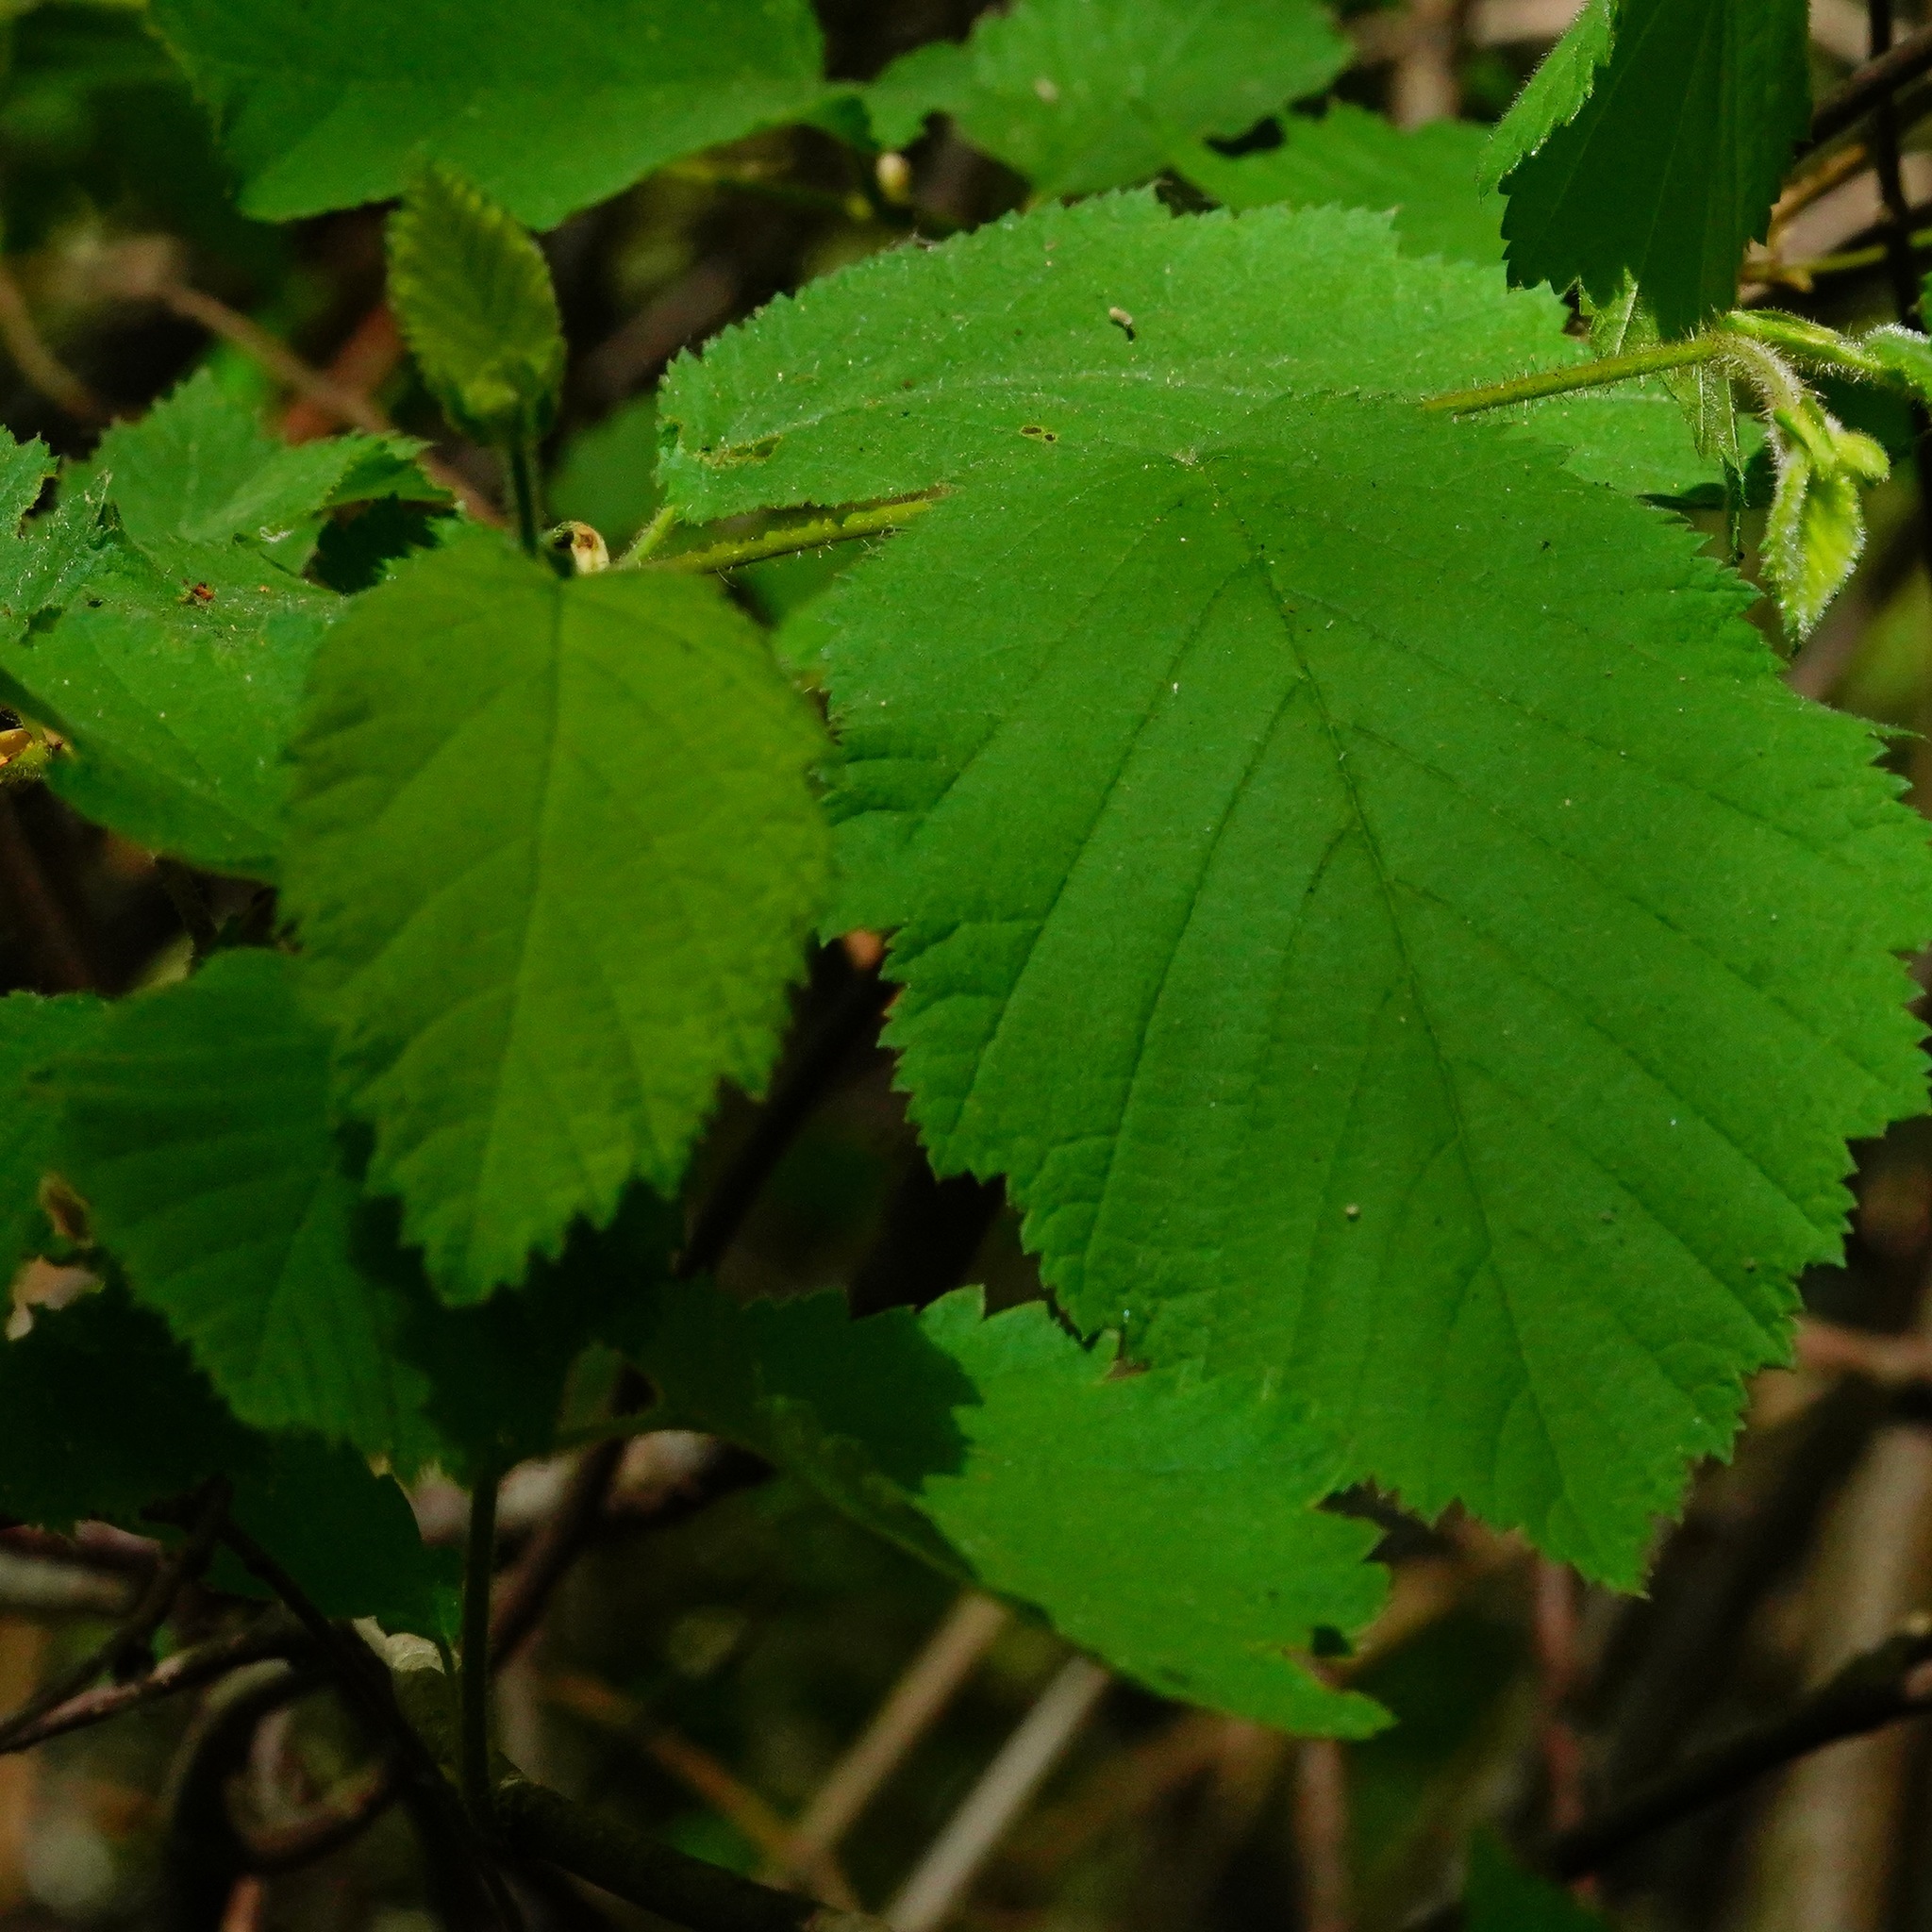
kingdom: Plantae
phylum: Tracheophyta
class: Magnoliopsida
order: Fagales
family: Betulaceae
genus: Corylus
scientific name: Corylus cornuta
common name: Beaked hazel
